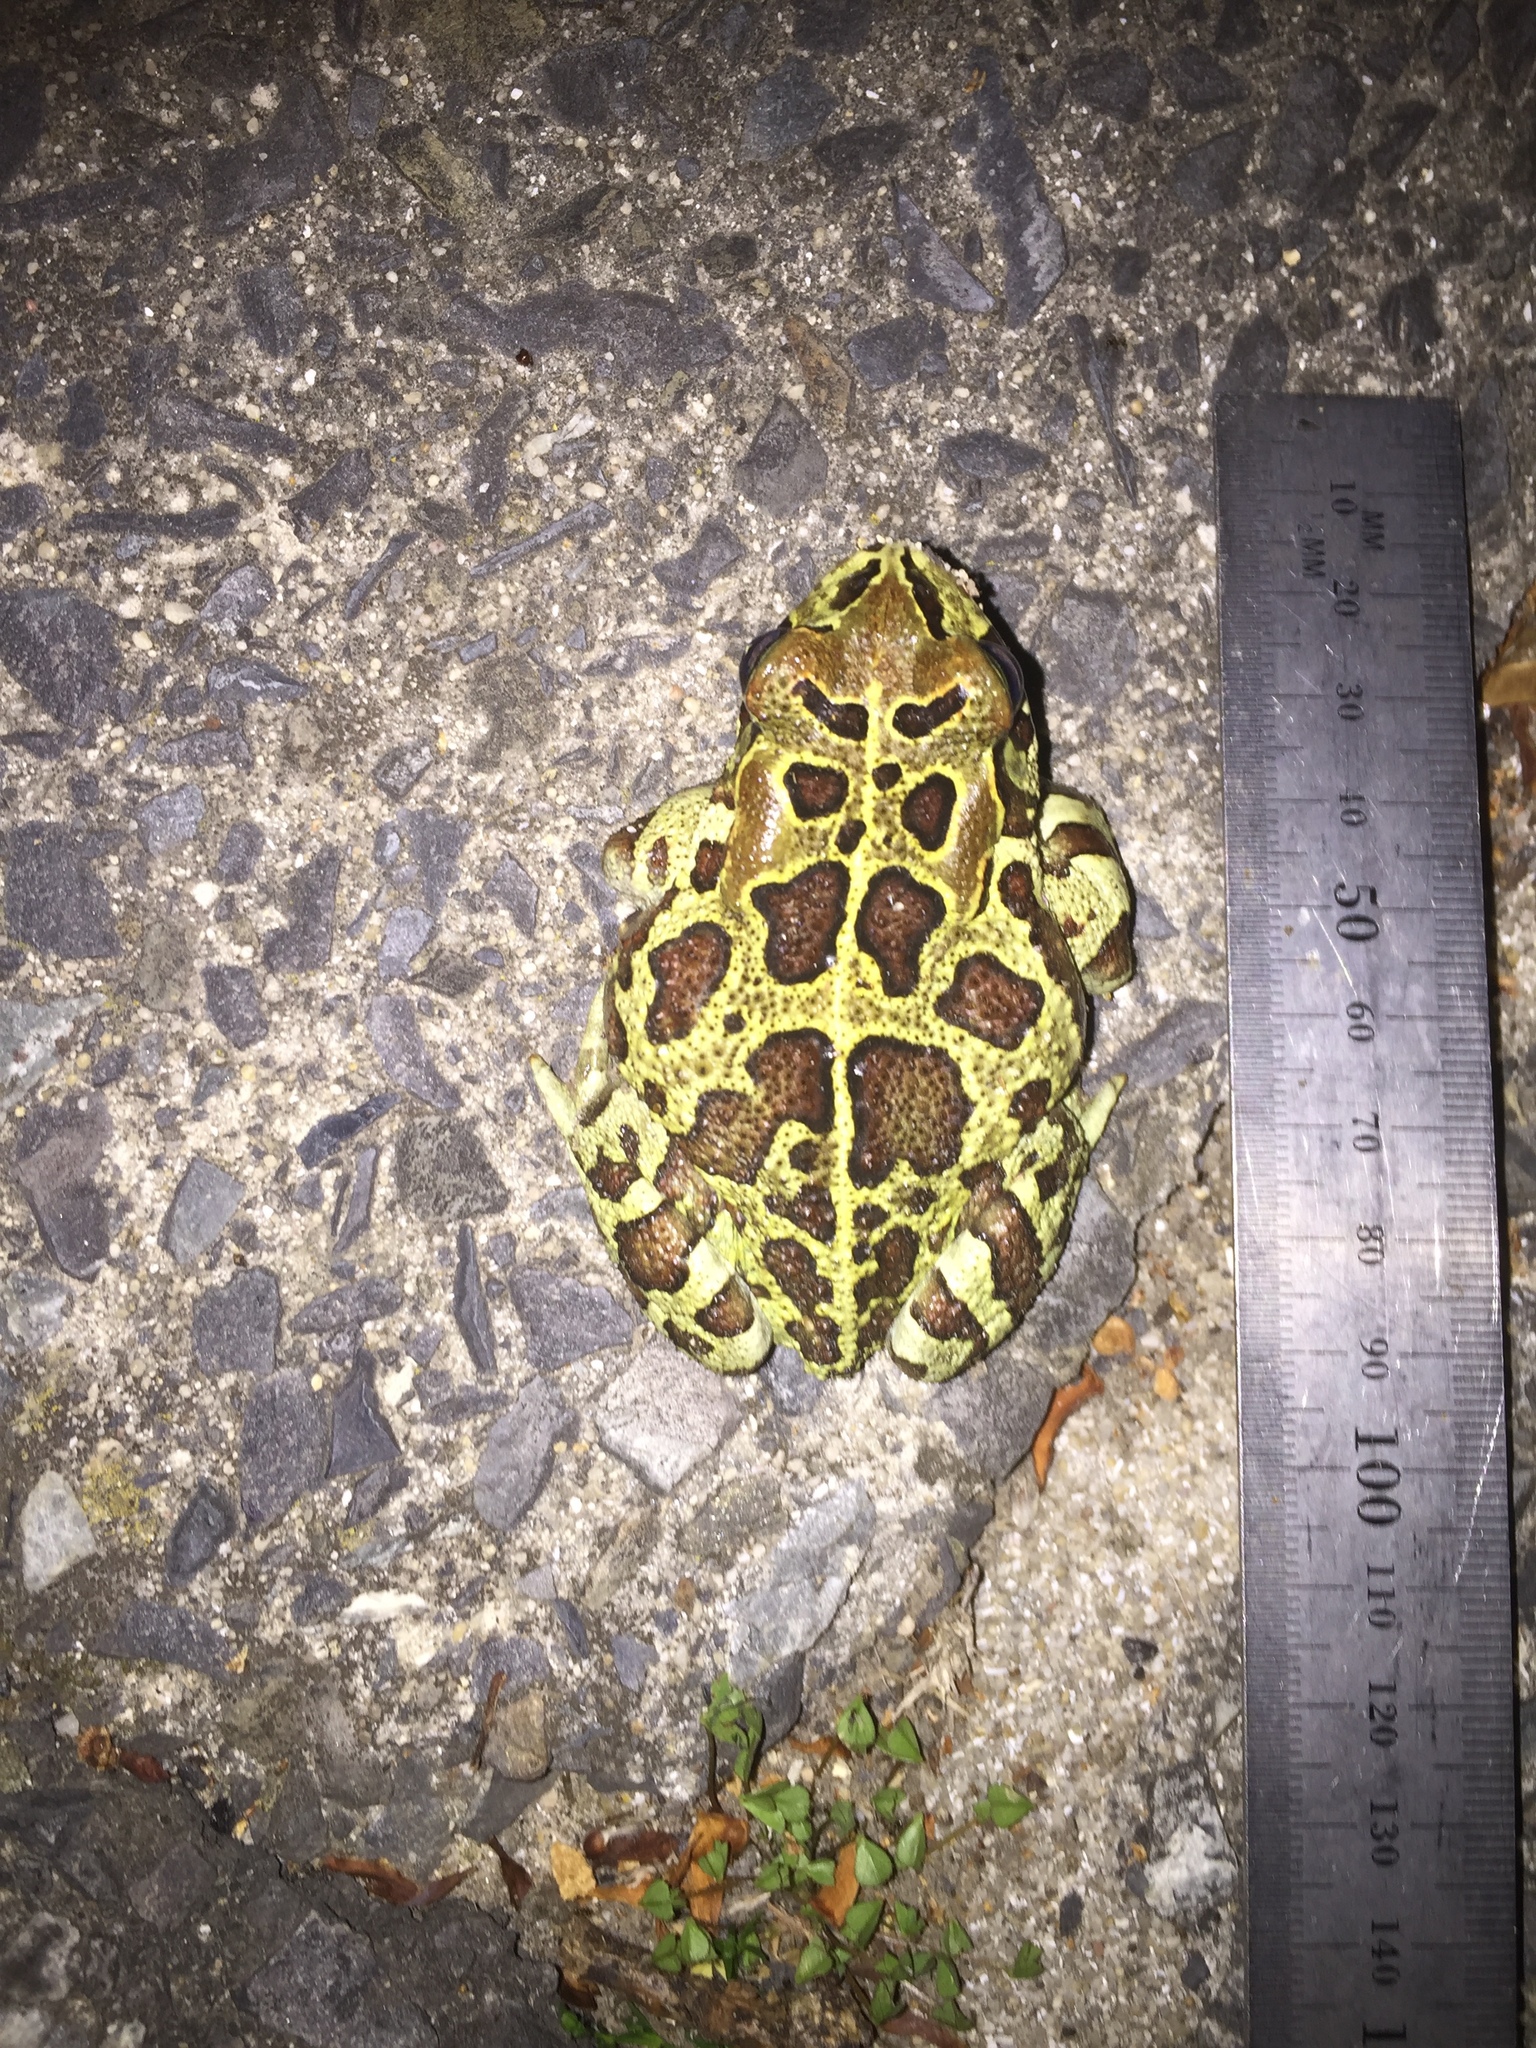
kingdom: Animalia
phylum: Chordata
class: Amphibia
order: Anura
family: Bufonidae
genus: Sclerophrys
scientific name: Sclerophrys pantherina
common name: Panther toad
